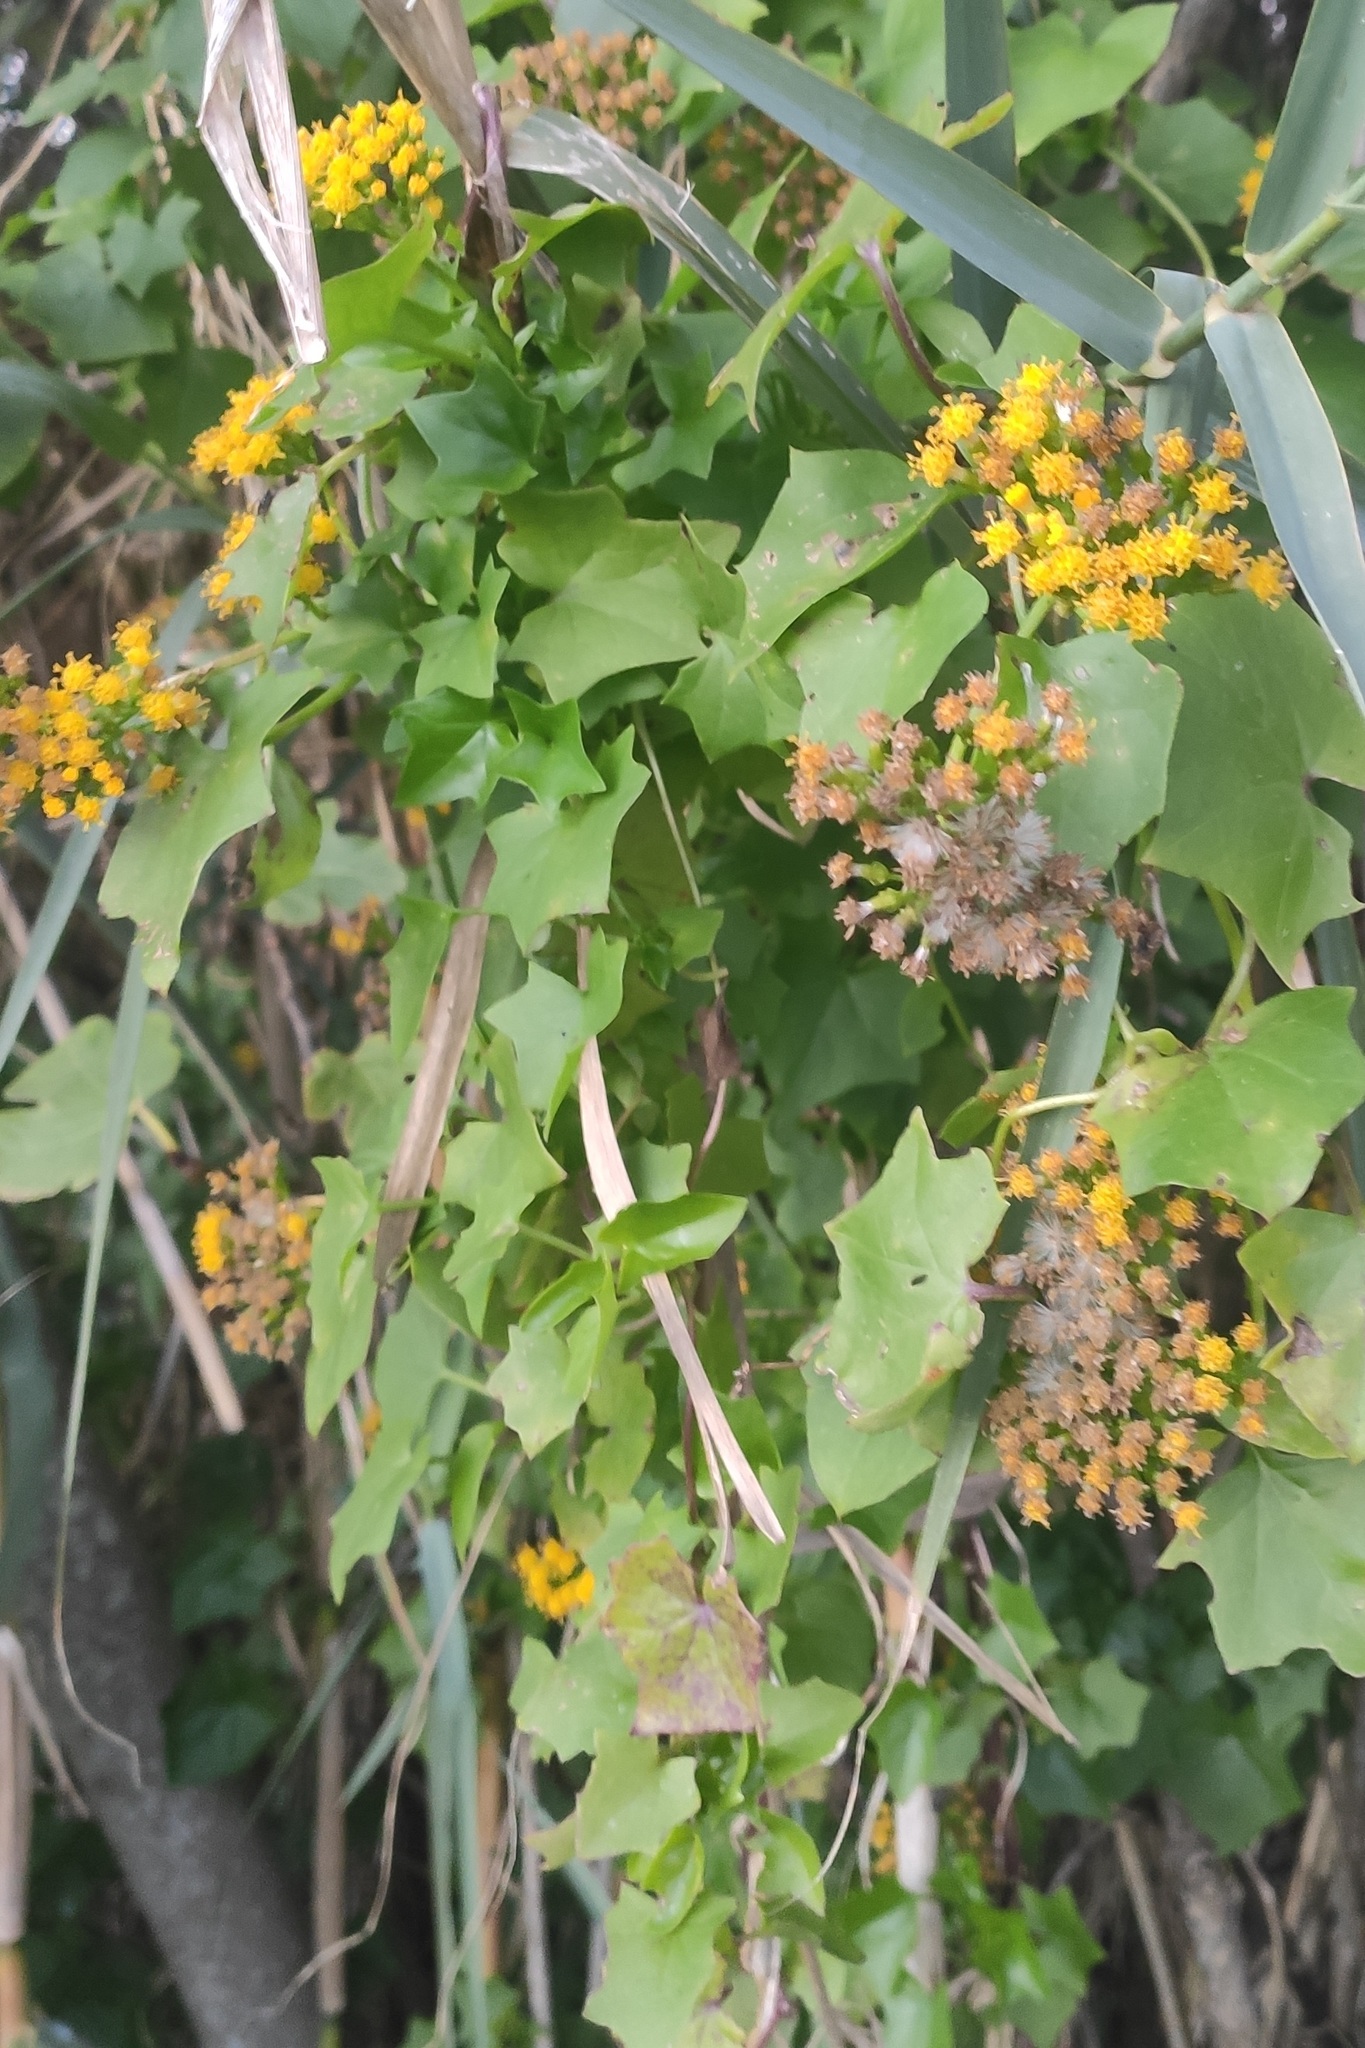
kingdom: Plantae
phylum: Tracheophyta
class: Magnoliopsida
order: Asterales
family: Asteraceae
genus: Delairea
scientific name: Delairea odorata
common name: Cape-ivy
